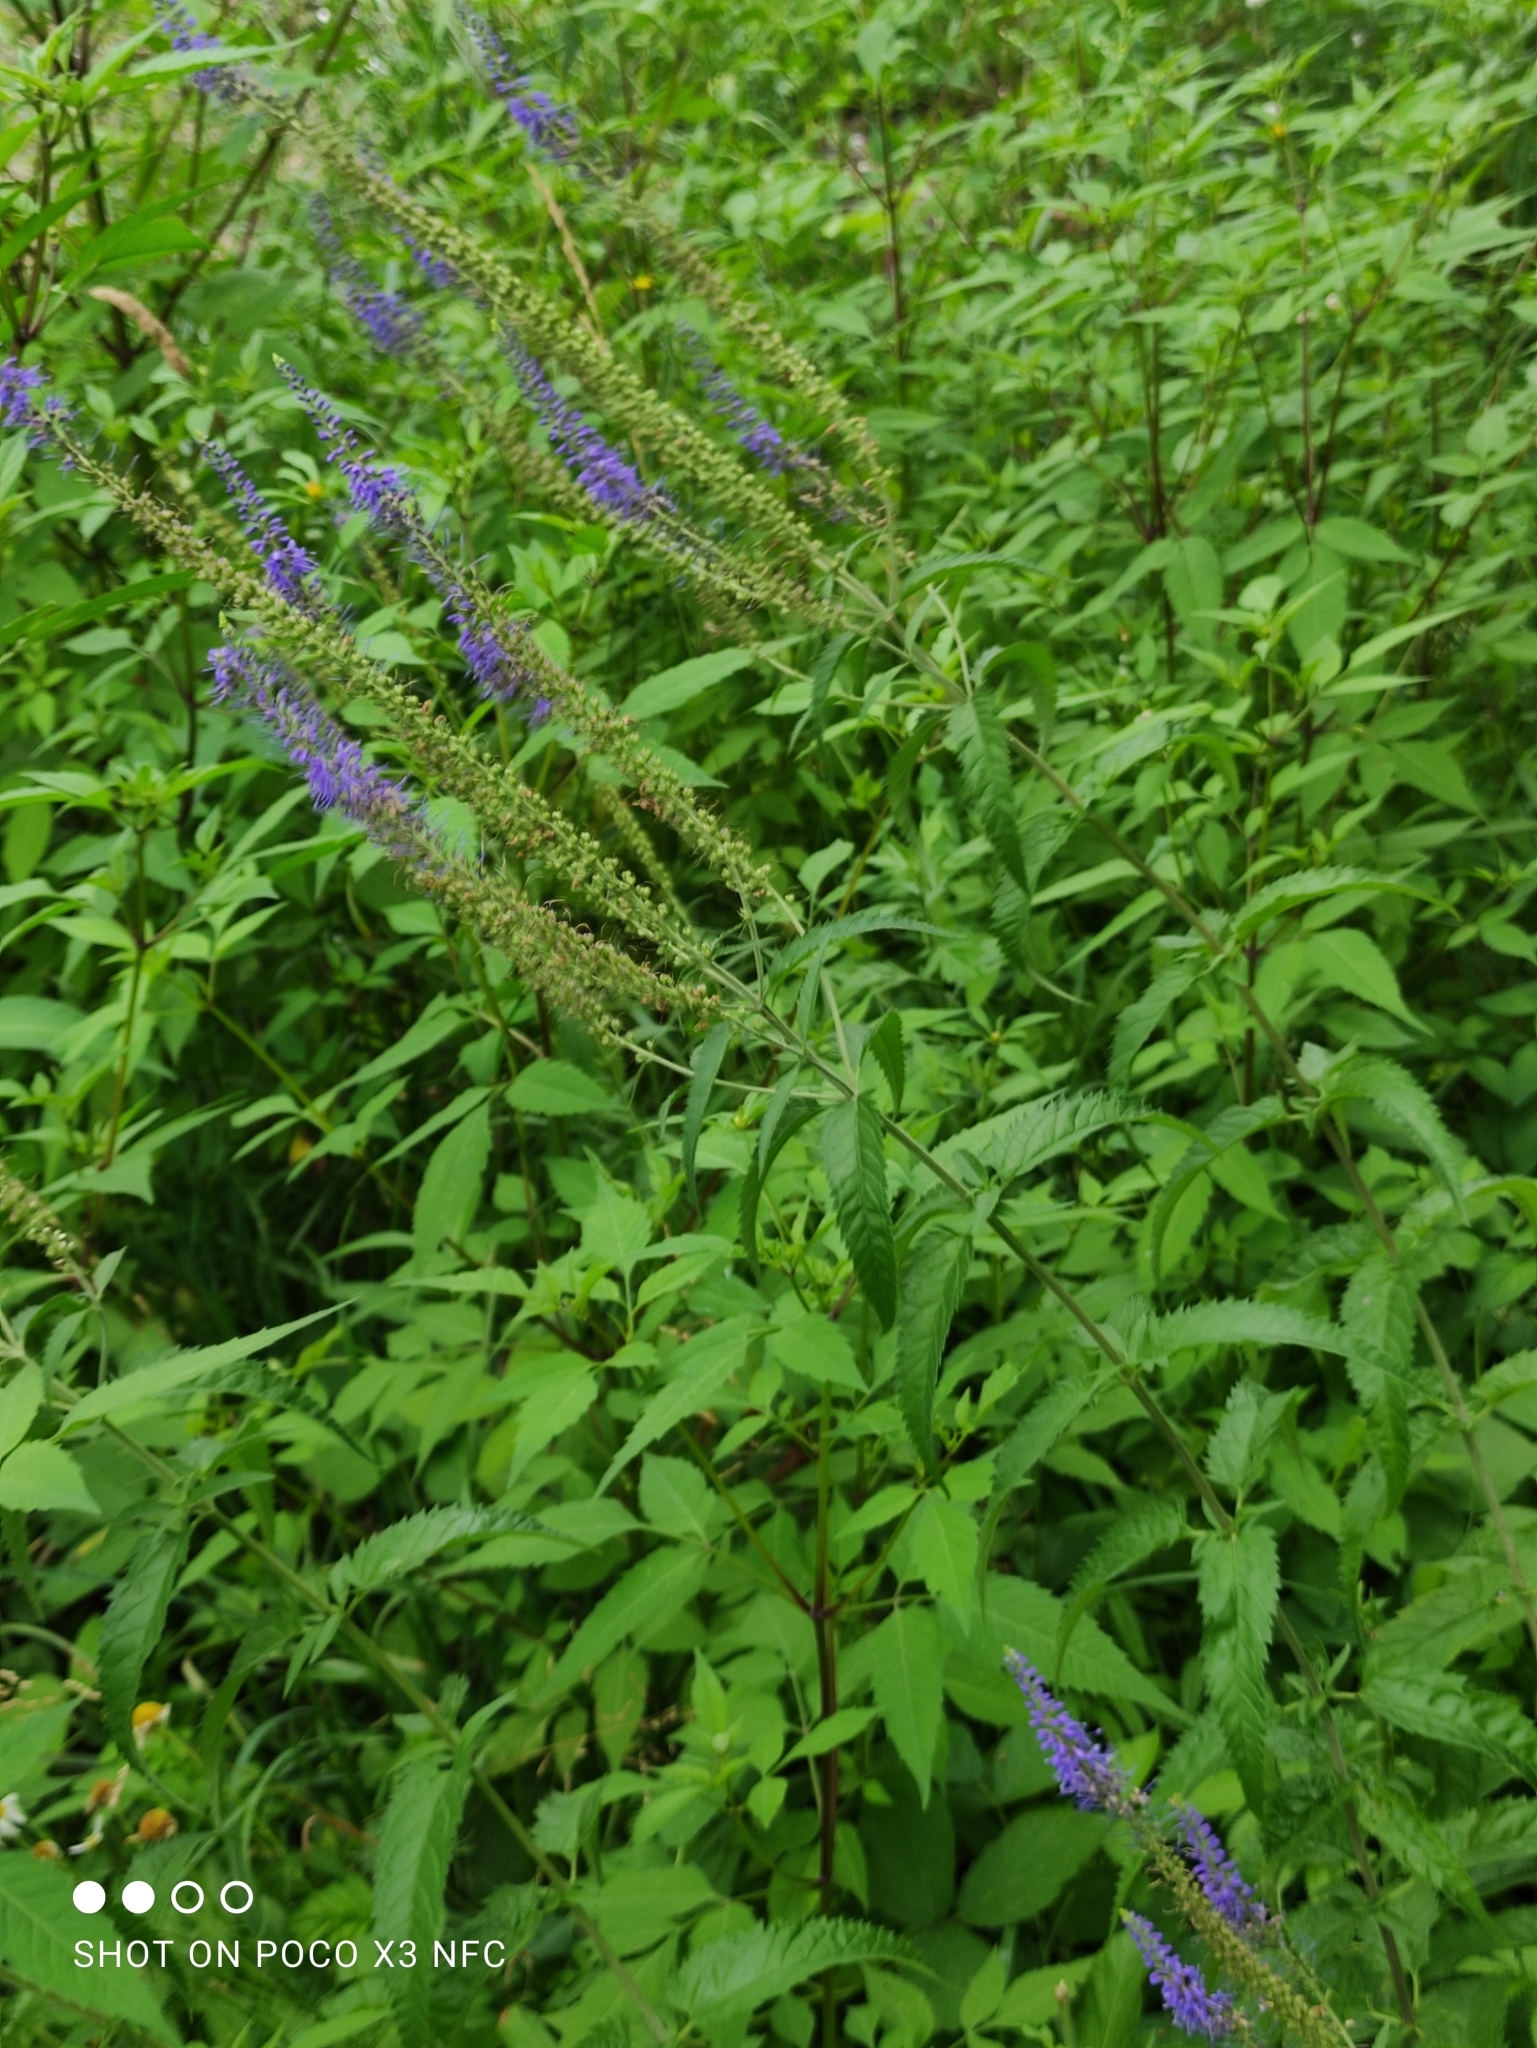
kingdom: Plantae
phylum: Tracheophyta
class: Magnoliopsida
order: Lamiales
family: Plantaginaceae
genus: Veronica
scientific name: Veronica longifolia
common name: Garden speedwell
